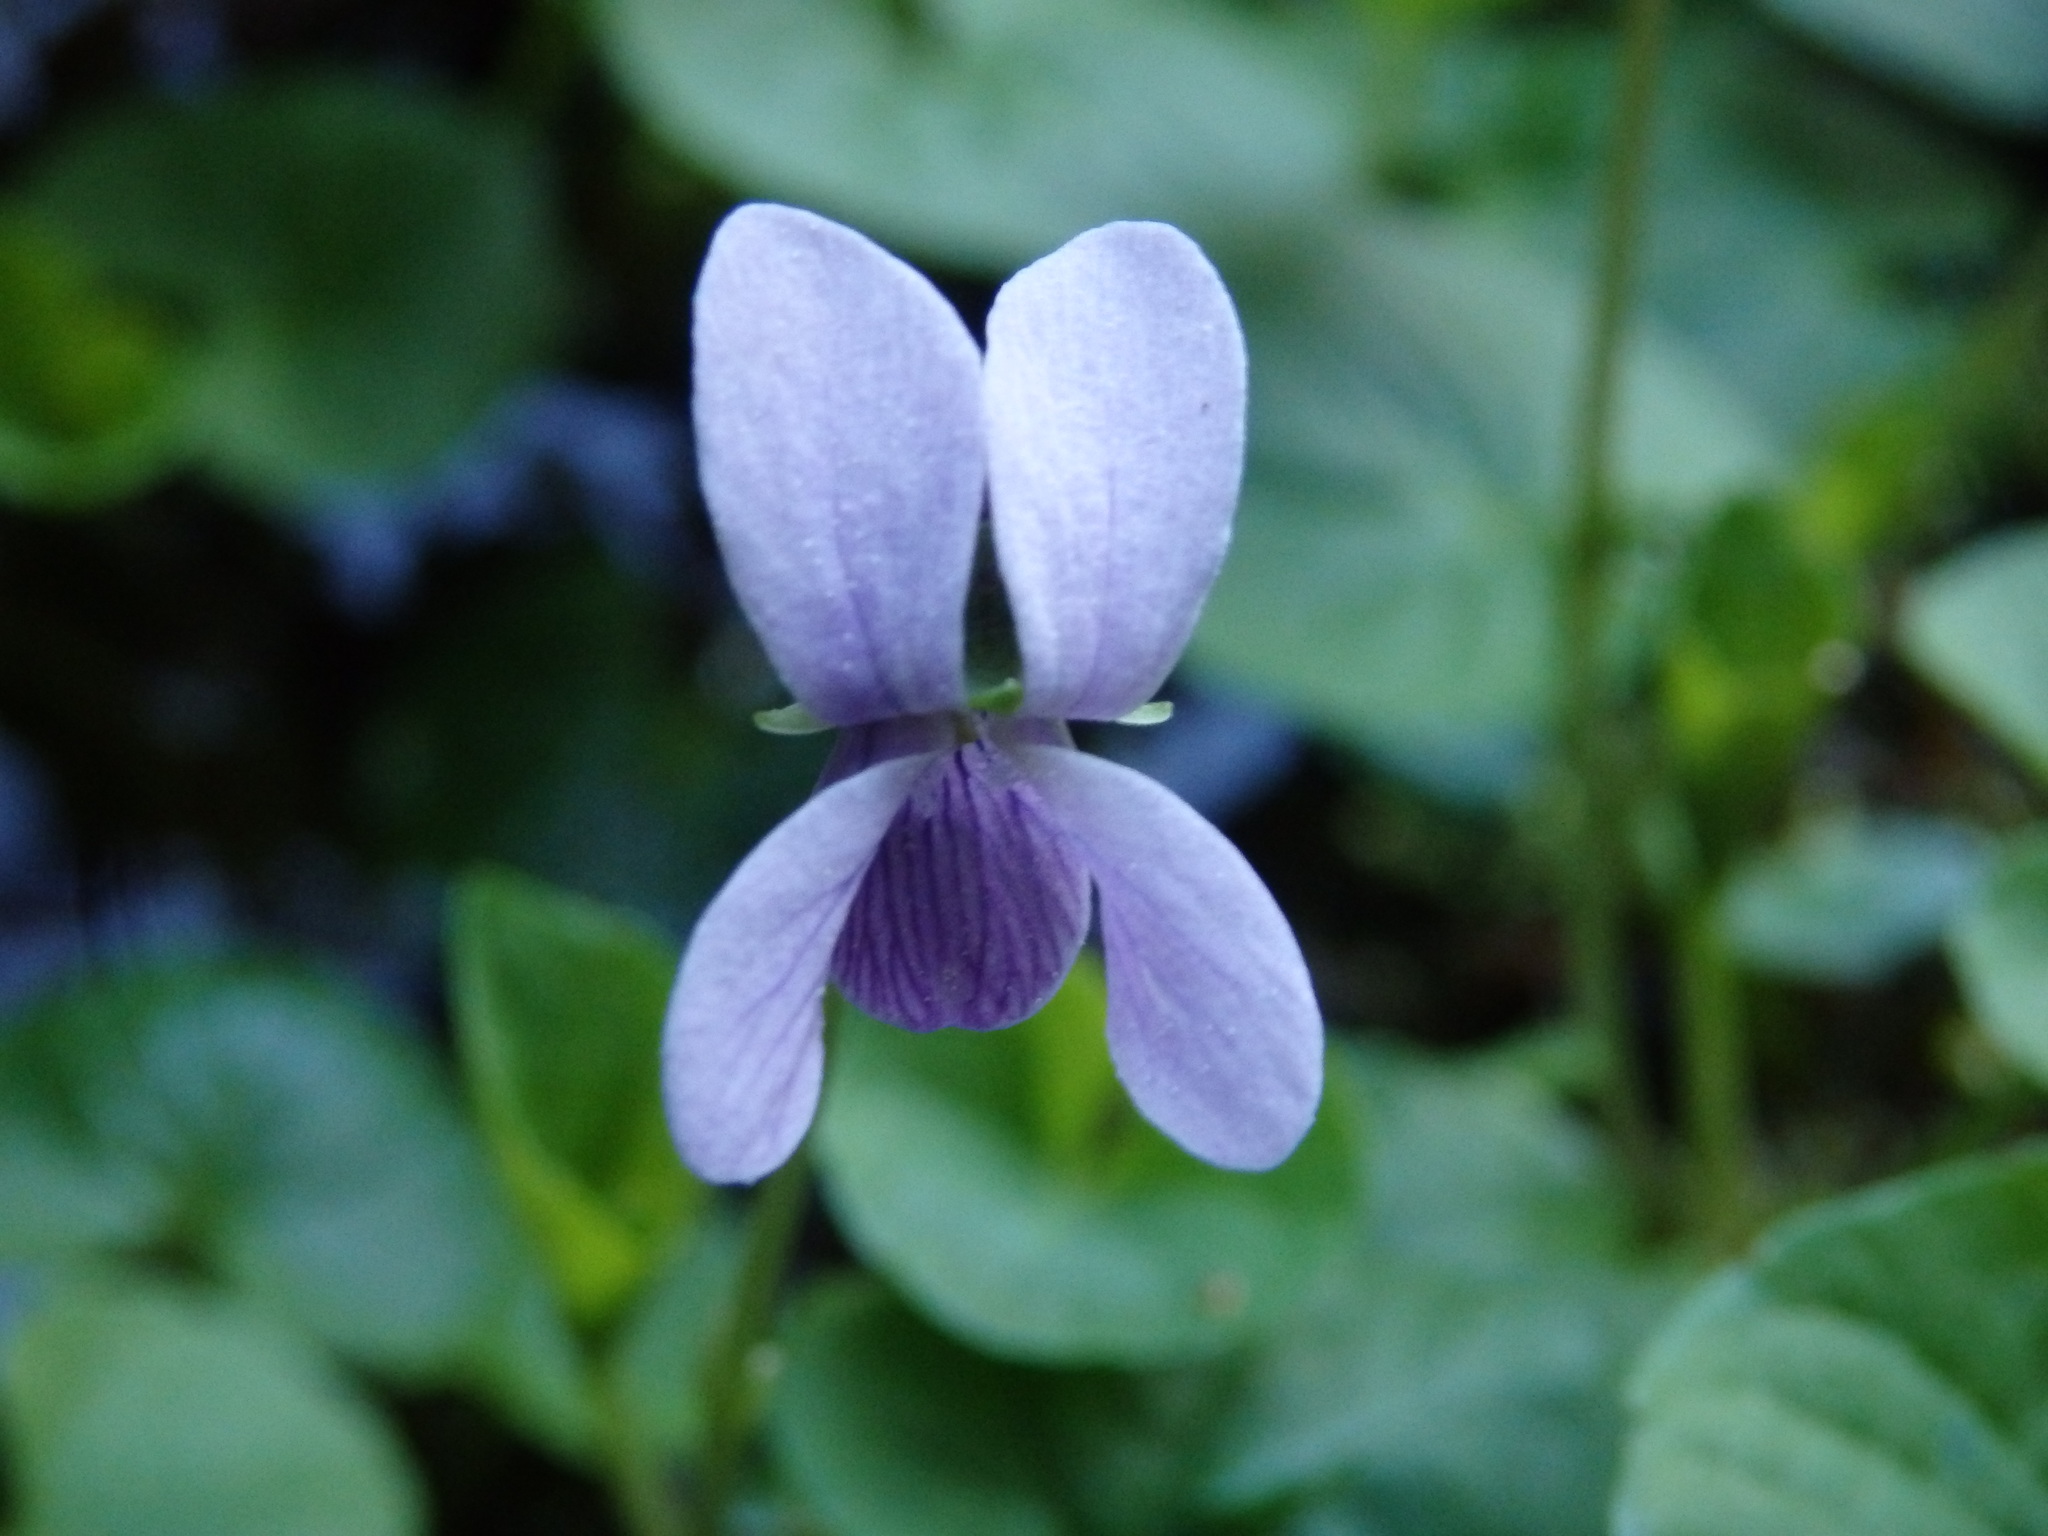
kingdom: Plantae
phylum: Tracheophyta
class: Magnoliopsida
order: Malpighiales
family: Violaceae
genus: Viola
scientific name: Viola palustris
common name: Marsh violet
